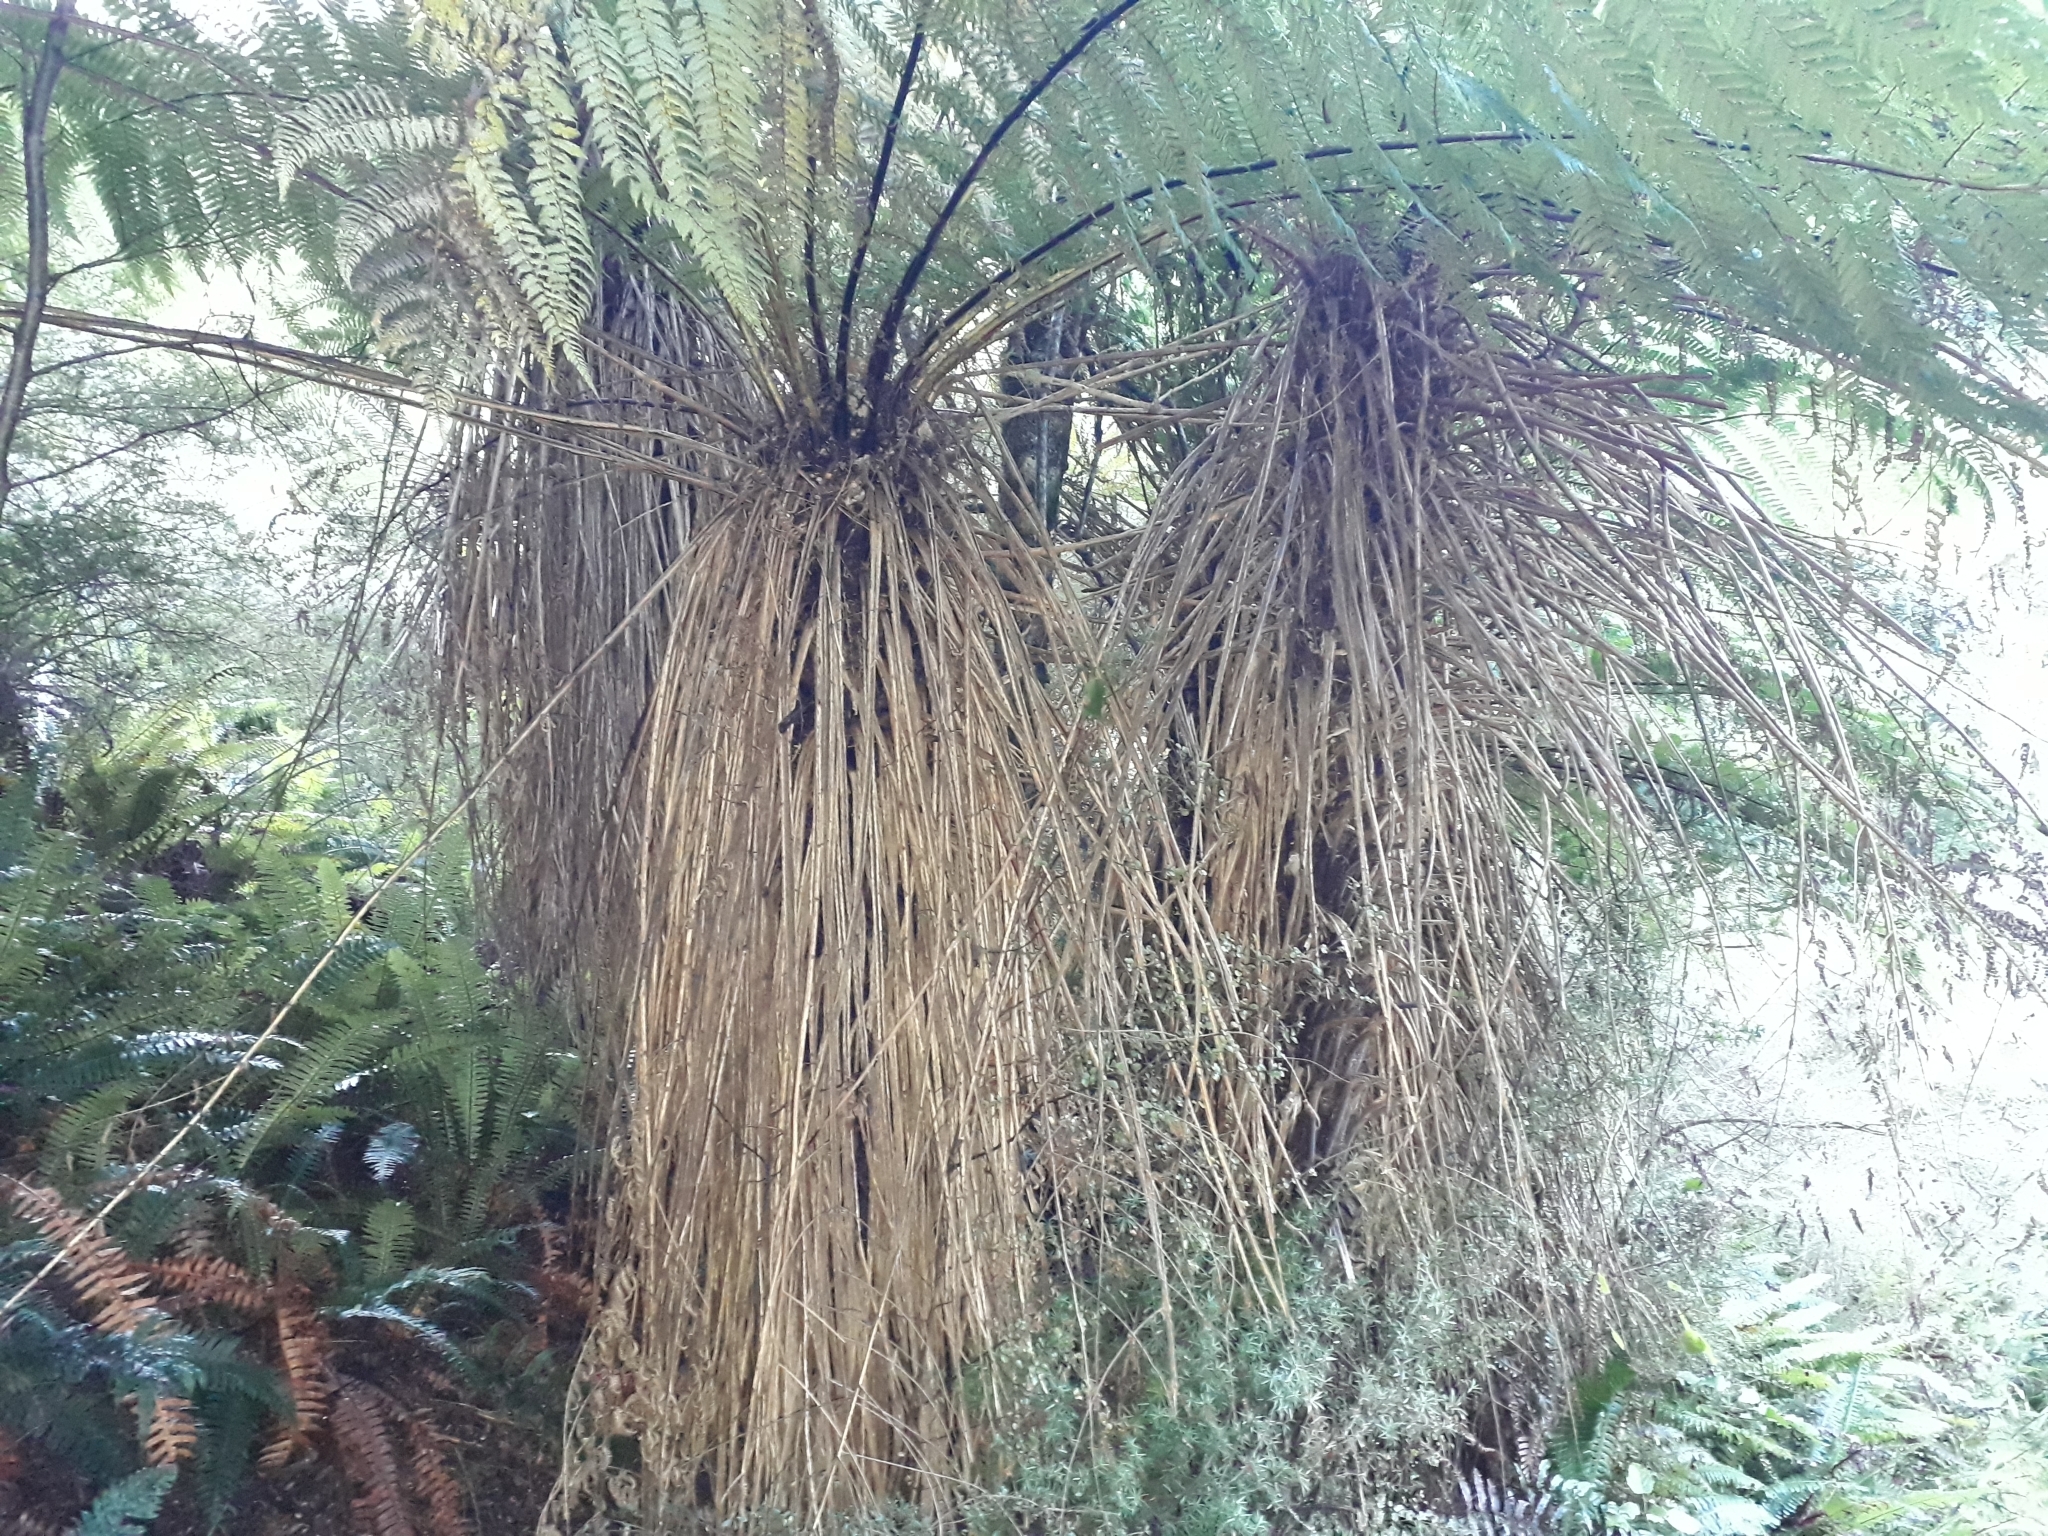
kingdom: Plantae
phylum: Tracheophyta
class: Polypodiopsida
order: Cyatheales
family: Cyatheaceae
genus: Alsophila
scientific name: Alsophila smithii
